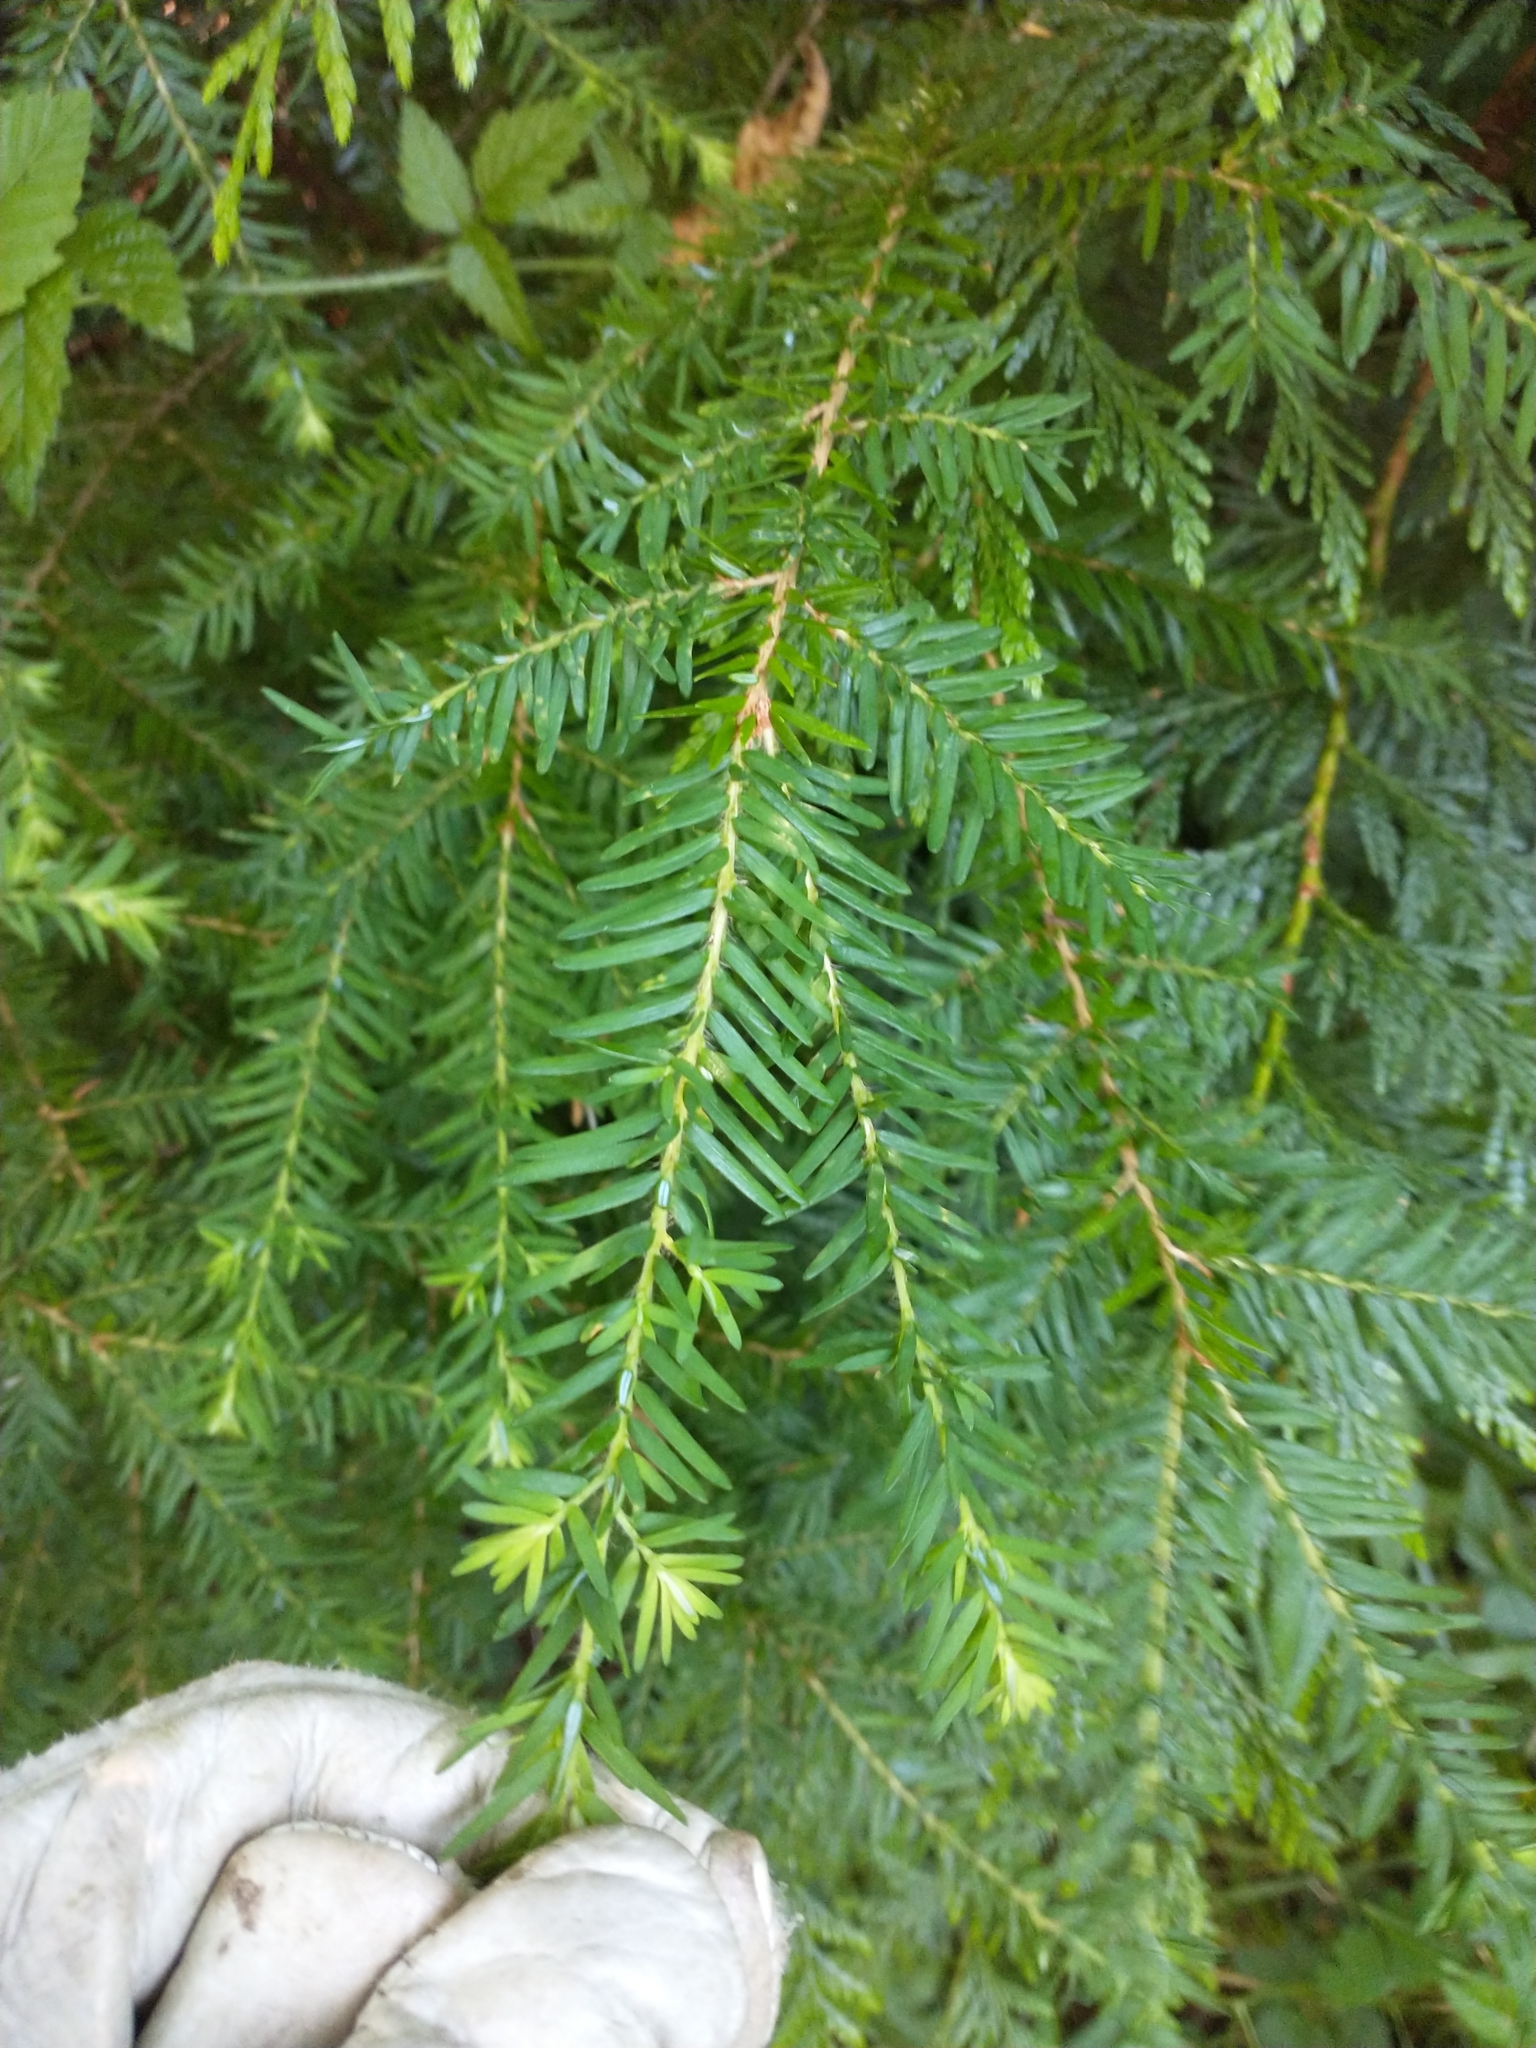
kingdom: Plantae
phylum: Tracheophyta
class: Pinopsida
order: Pinales
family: Pinaceae
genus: Tsuga
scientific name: Tsuga heterophylla
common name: Western hemlock
